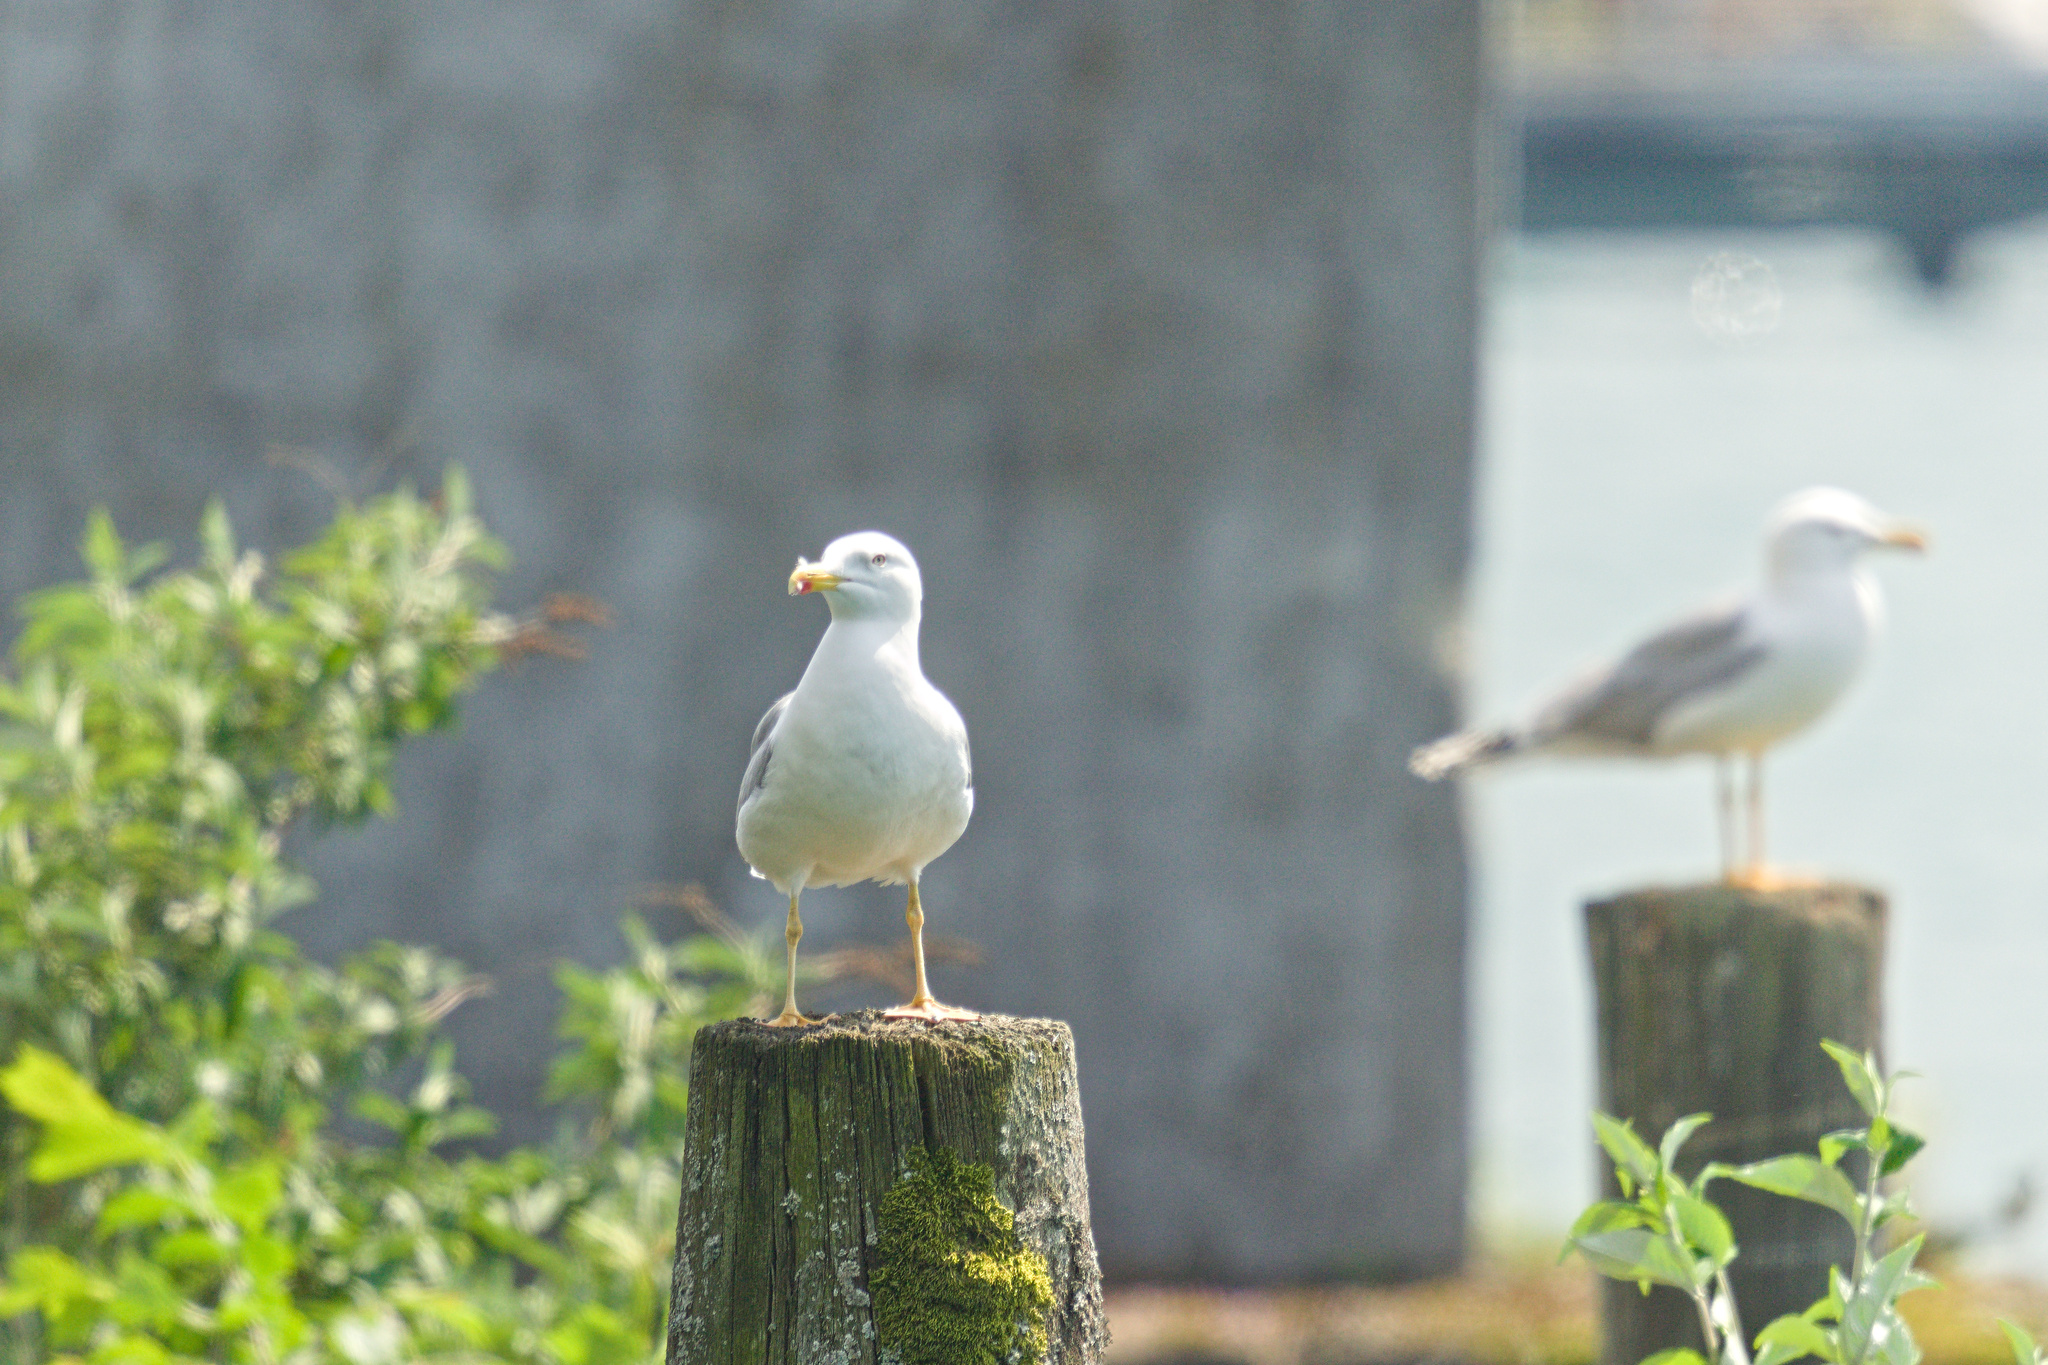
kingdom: Animalia
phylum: Chordata
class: Aves
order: Charadriiformes
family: Laridae
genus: Larus
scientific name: Larus michahellis
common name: Yellow-legged gull
